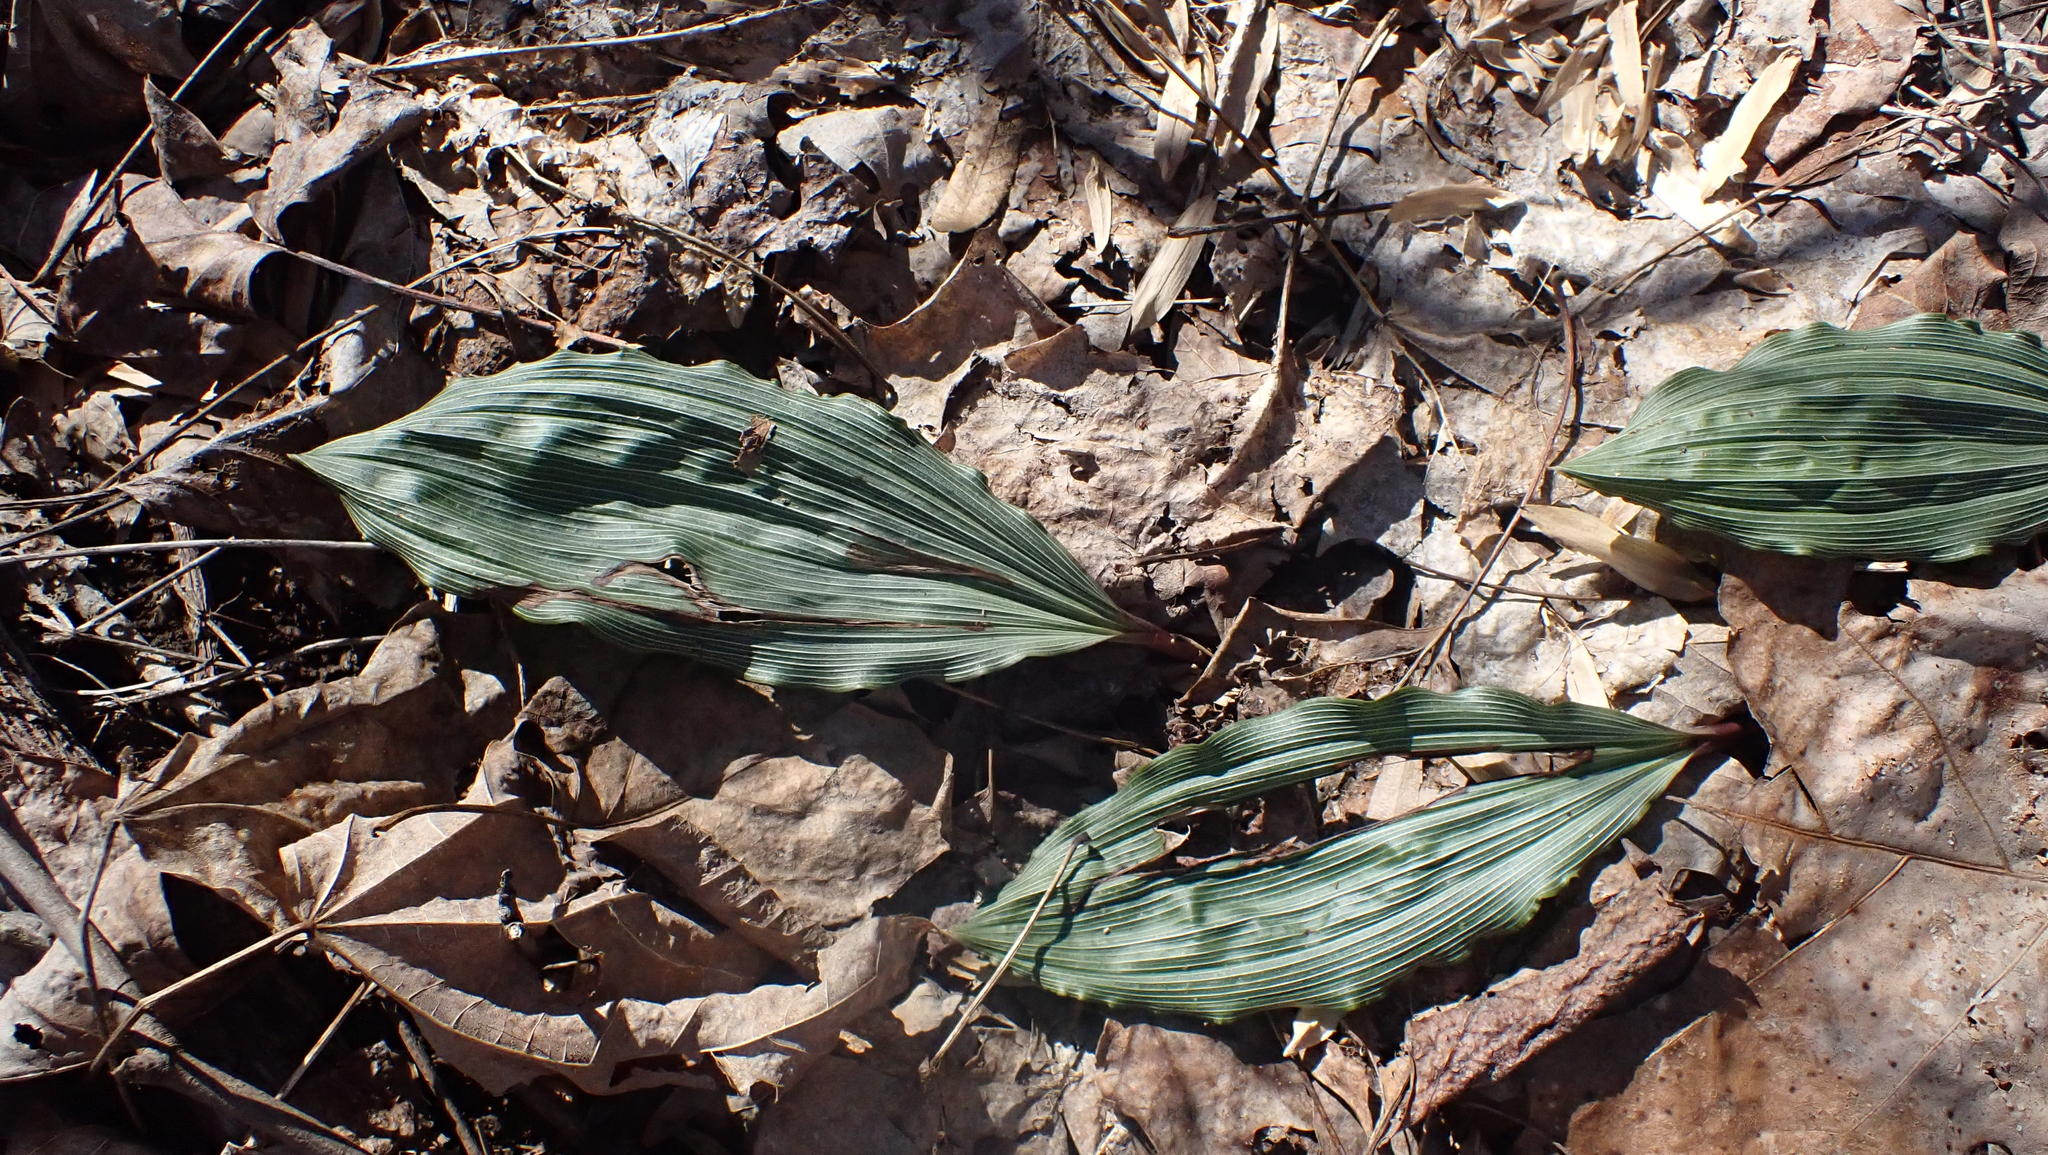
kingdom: Plantae
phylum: Tracheophyta
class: Liliopsida
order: Asparagales
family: Orchidaceae
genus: Aplectrum
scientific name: Aplectrum hyemale
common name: Adam-and-eve
